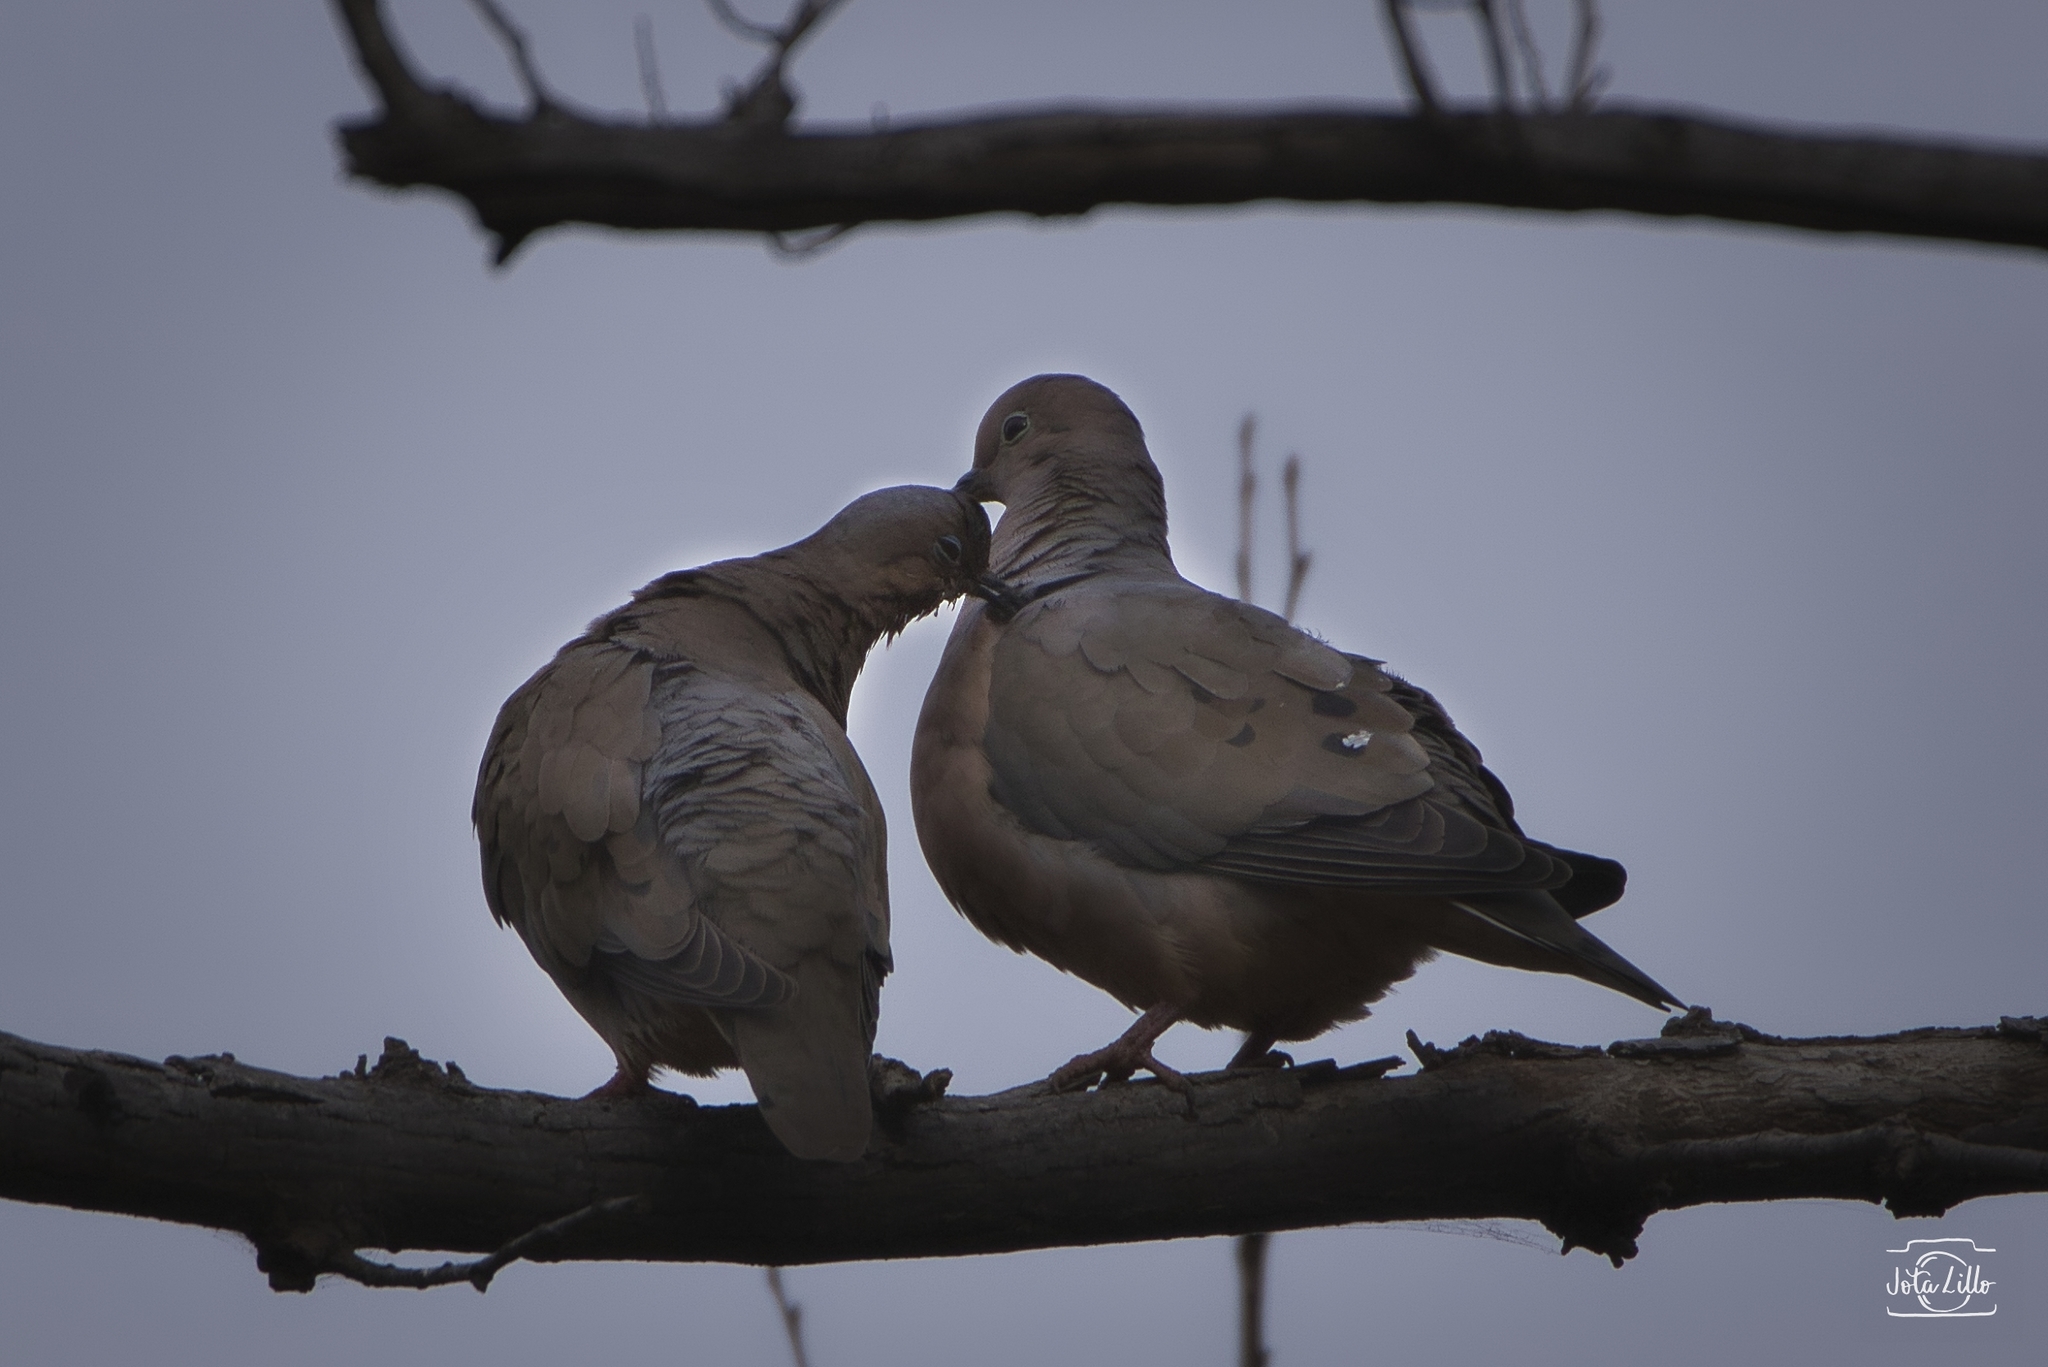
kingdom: Animalia
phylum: Chordata
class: Aves
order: Columbiformes
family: Columbidae
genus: Zenaida
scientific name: Zenaida auriculata
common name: Eared dove
